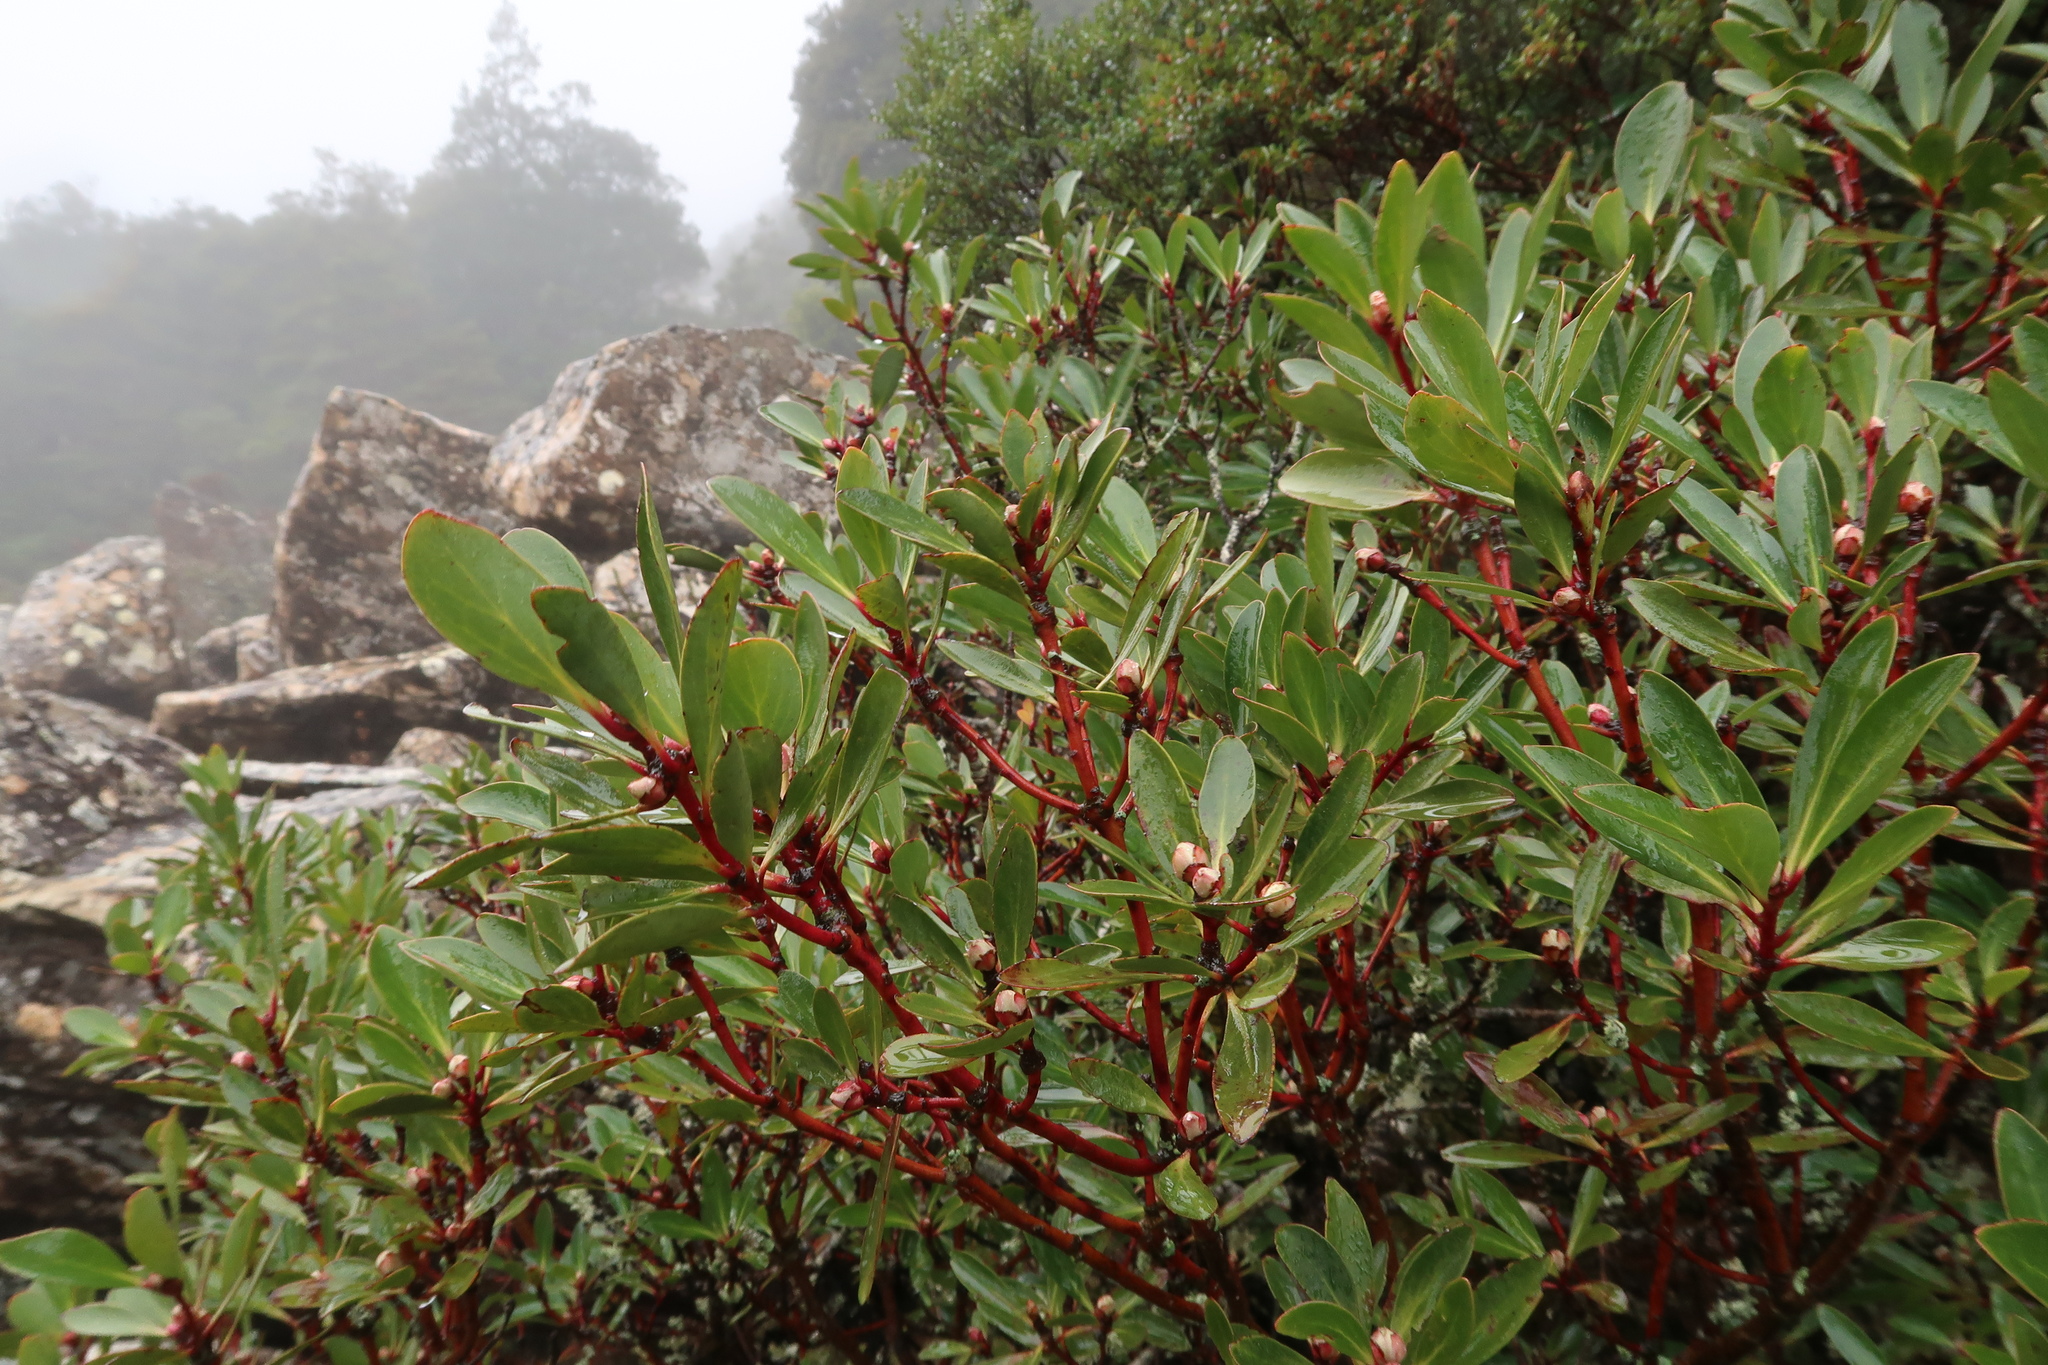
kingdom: Plantae
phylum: Tracheophyta
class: Magnoliopsida
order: Canellales
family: Winteraceae
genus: Drimys
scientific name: Drimys aromatica
